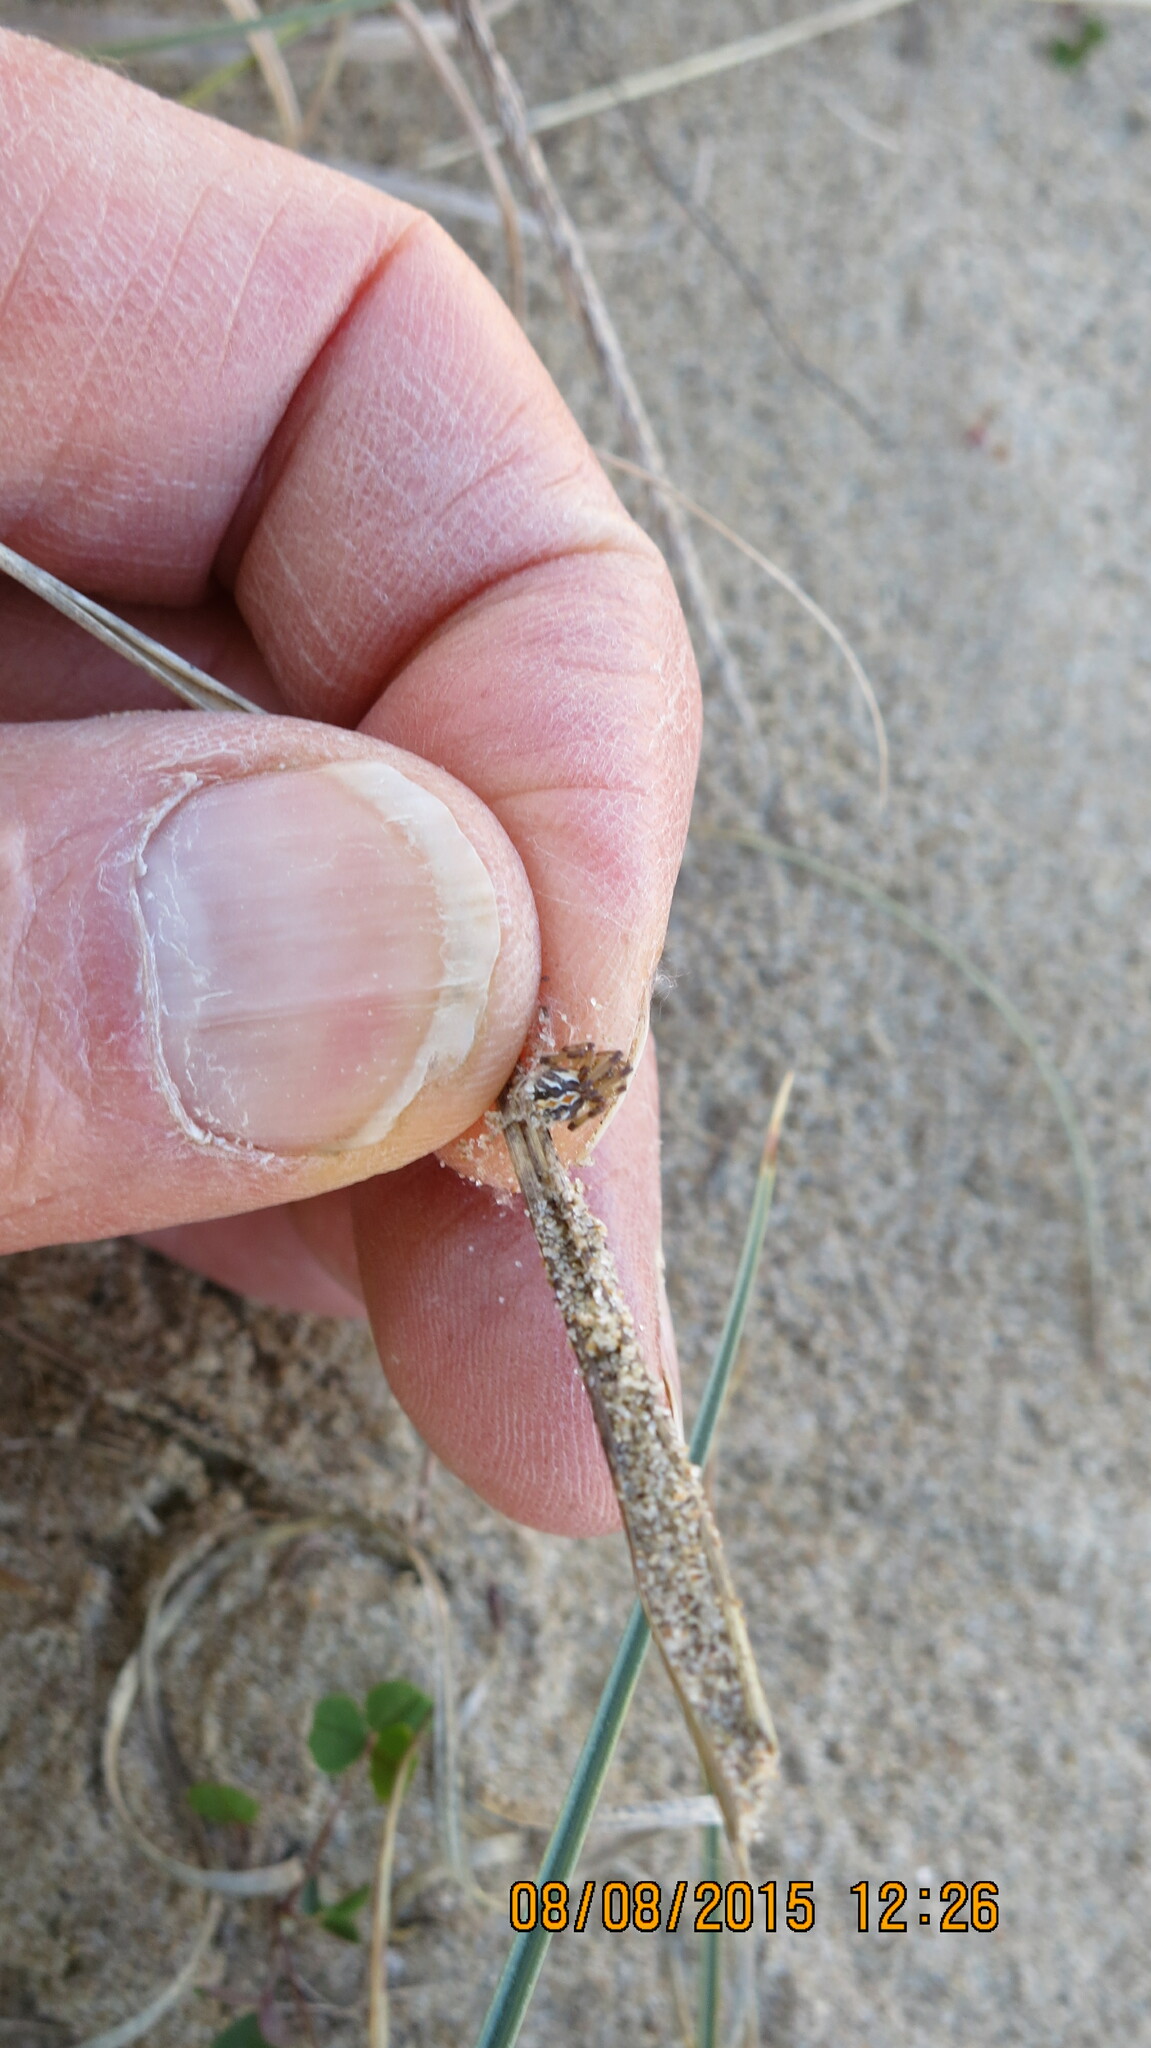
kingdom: Animalia
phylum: Arthropoda
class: Arachnida
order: Araneae
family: Theridiidae
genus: Latrodectus
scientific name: Latrodectus katipo
